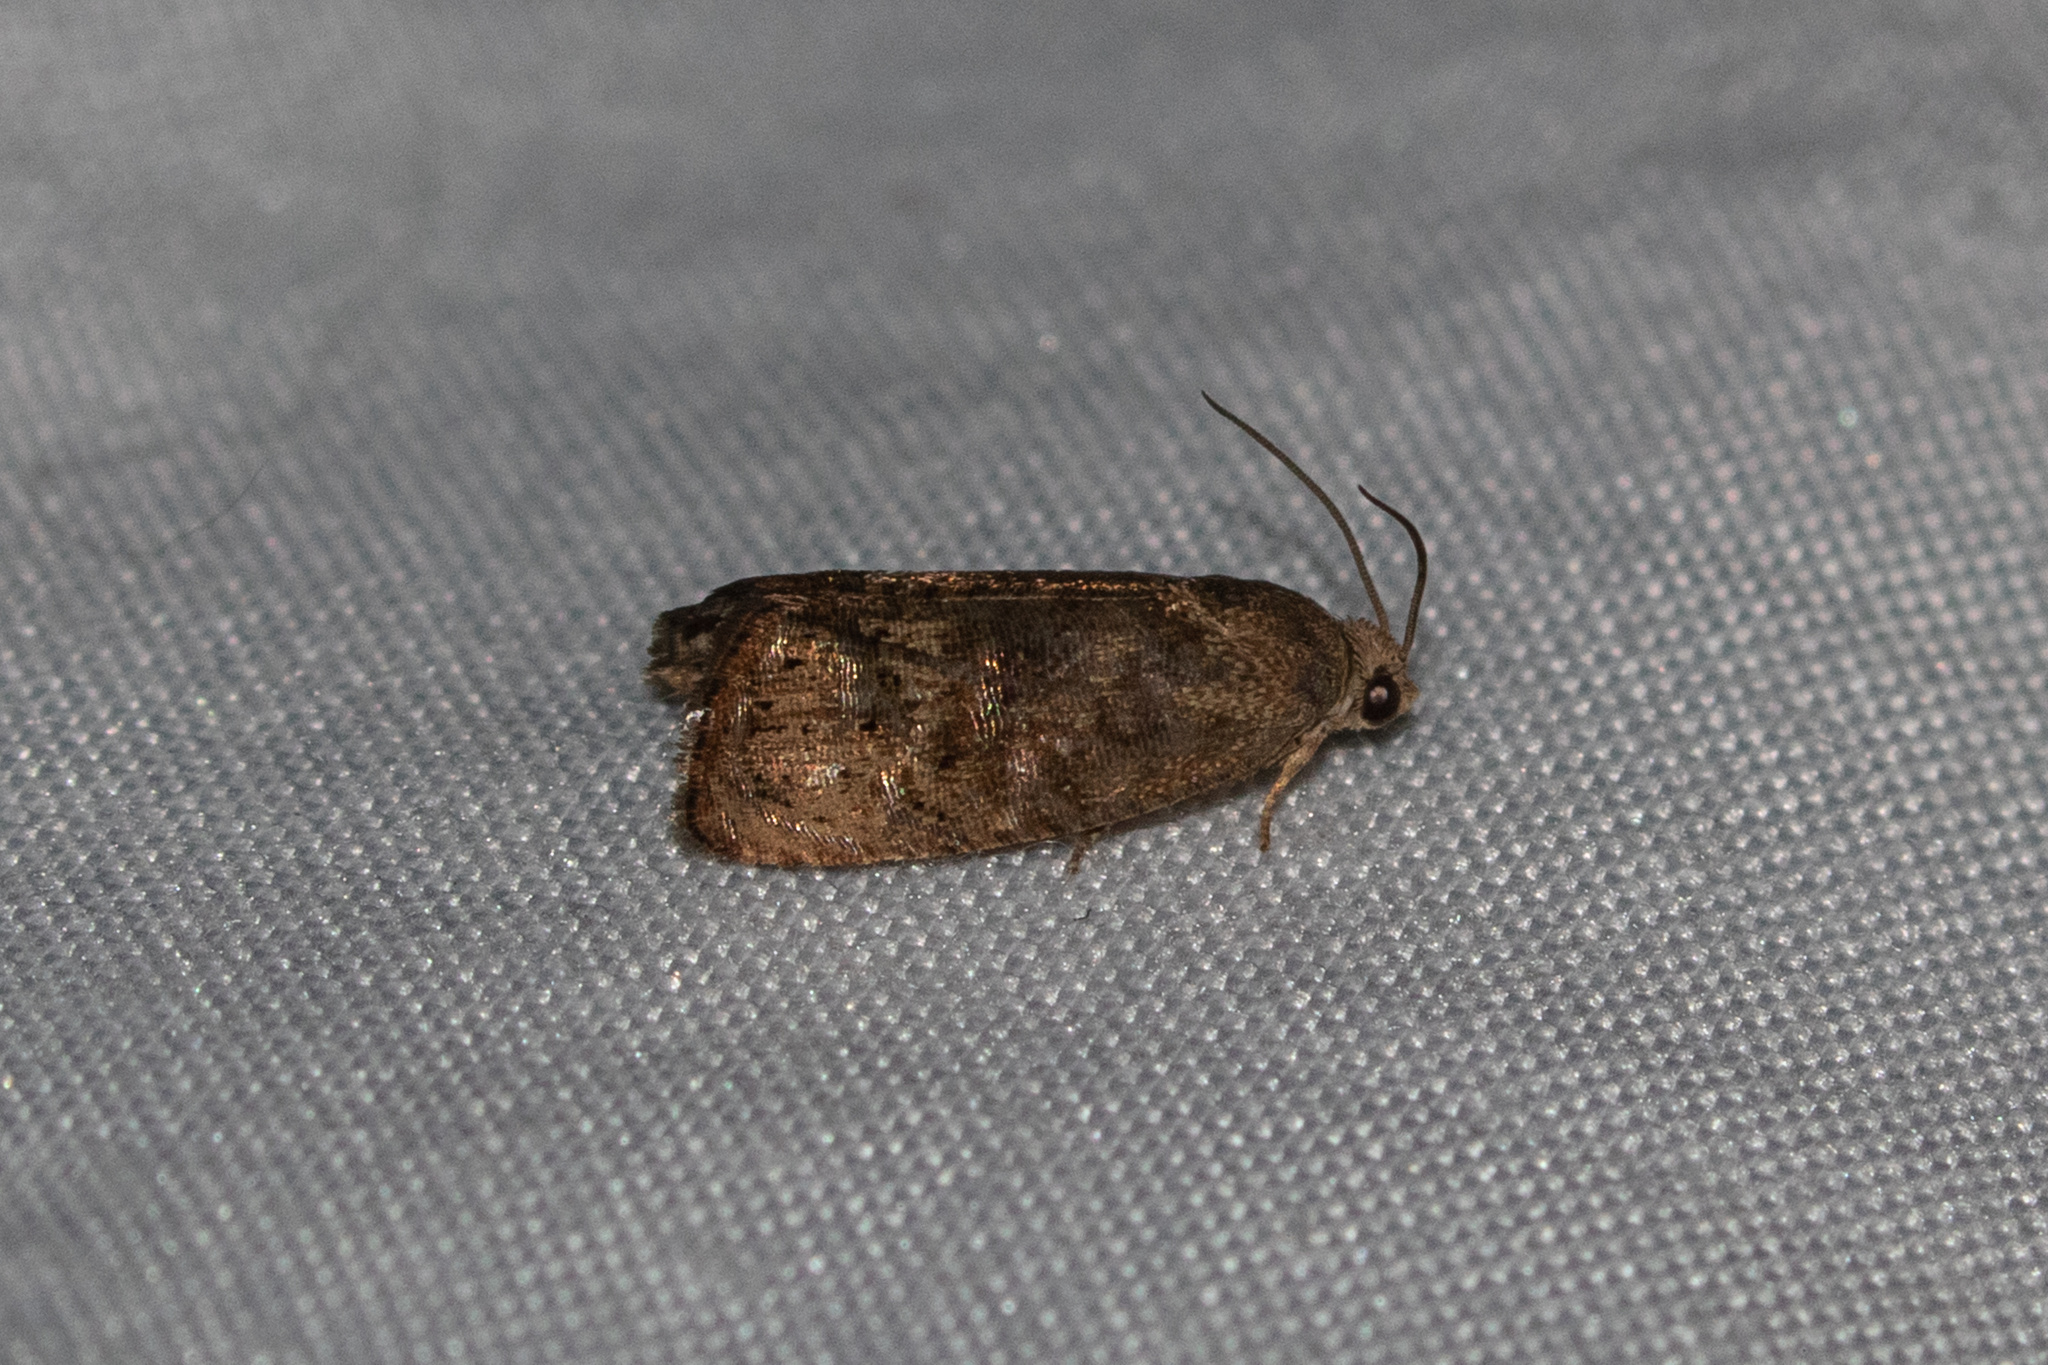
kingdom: Animalia
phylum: Arthropoda
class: Insecta
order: Lepidoptera
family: Tortricidae
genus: Cydia
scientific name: Cydia latiferreana
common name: Filbertworm moth
